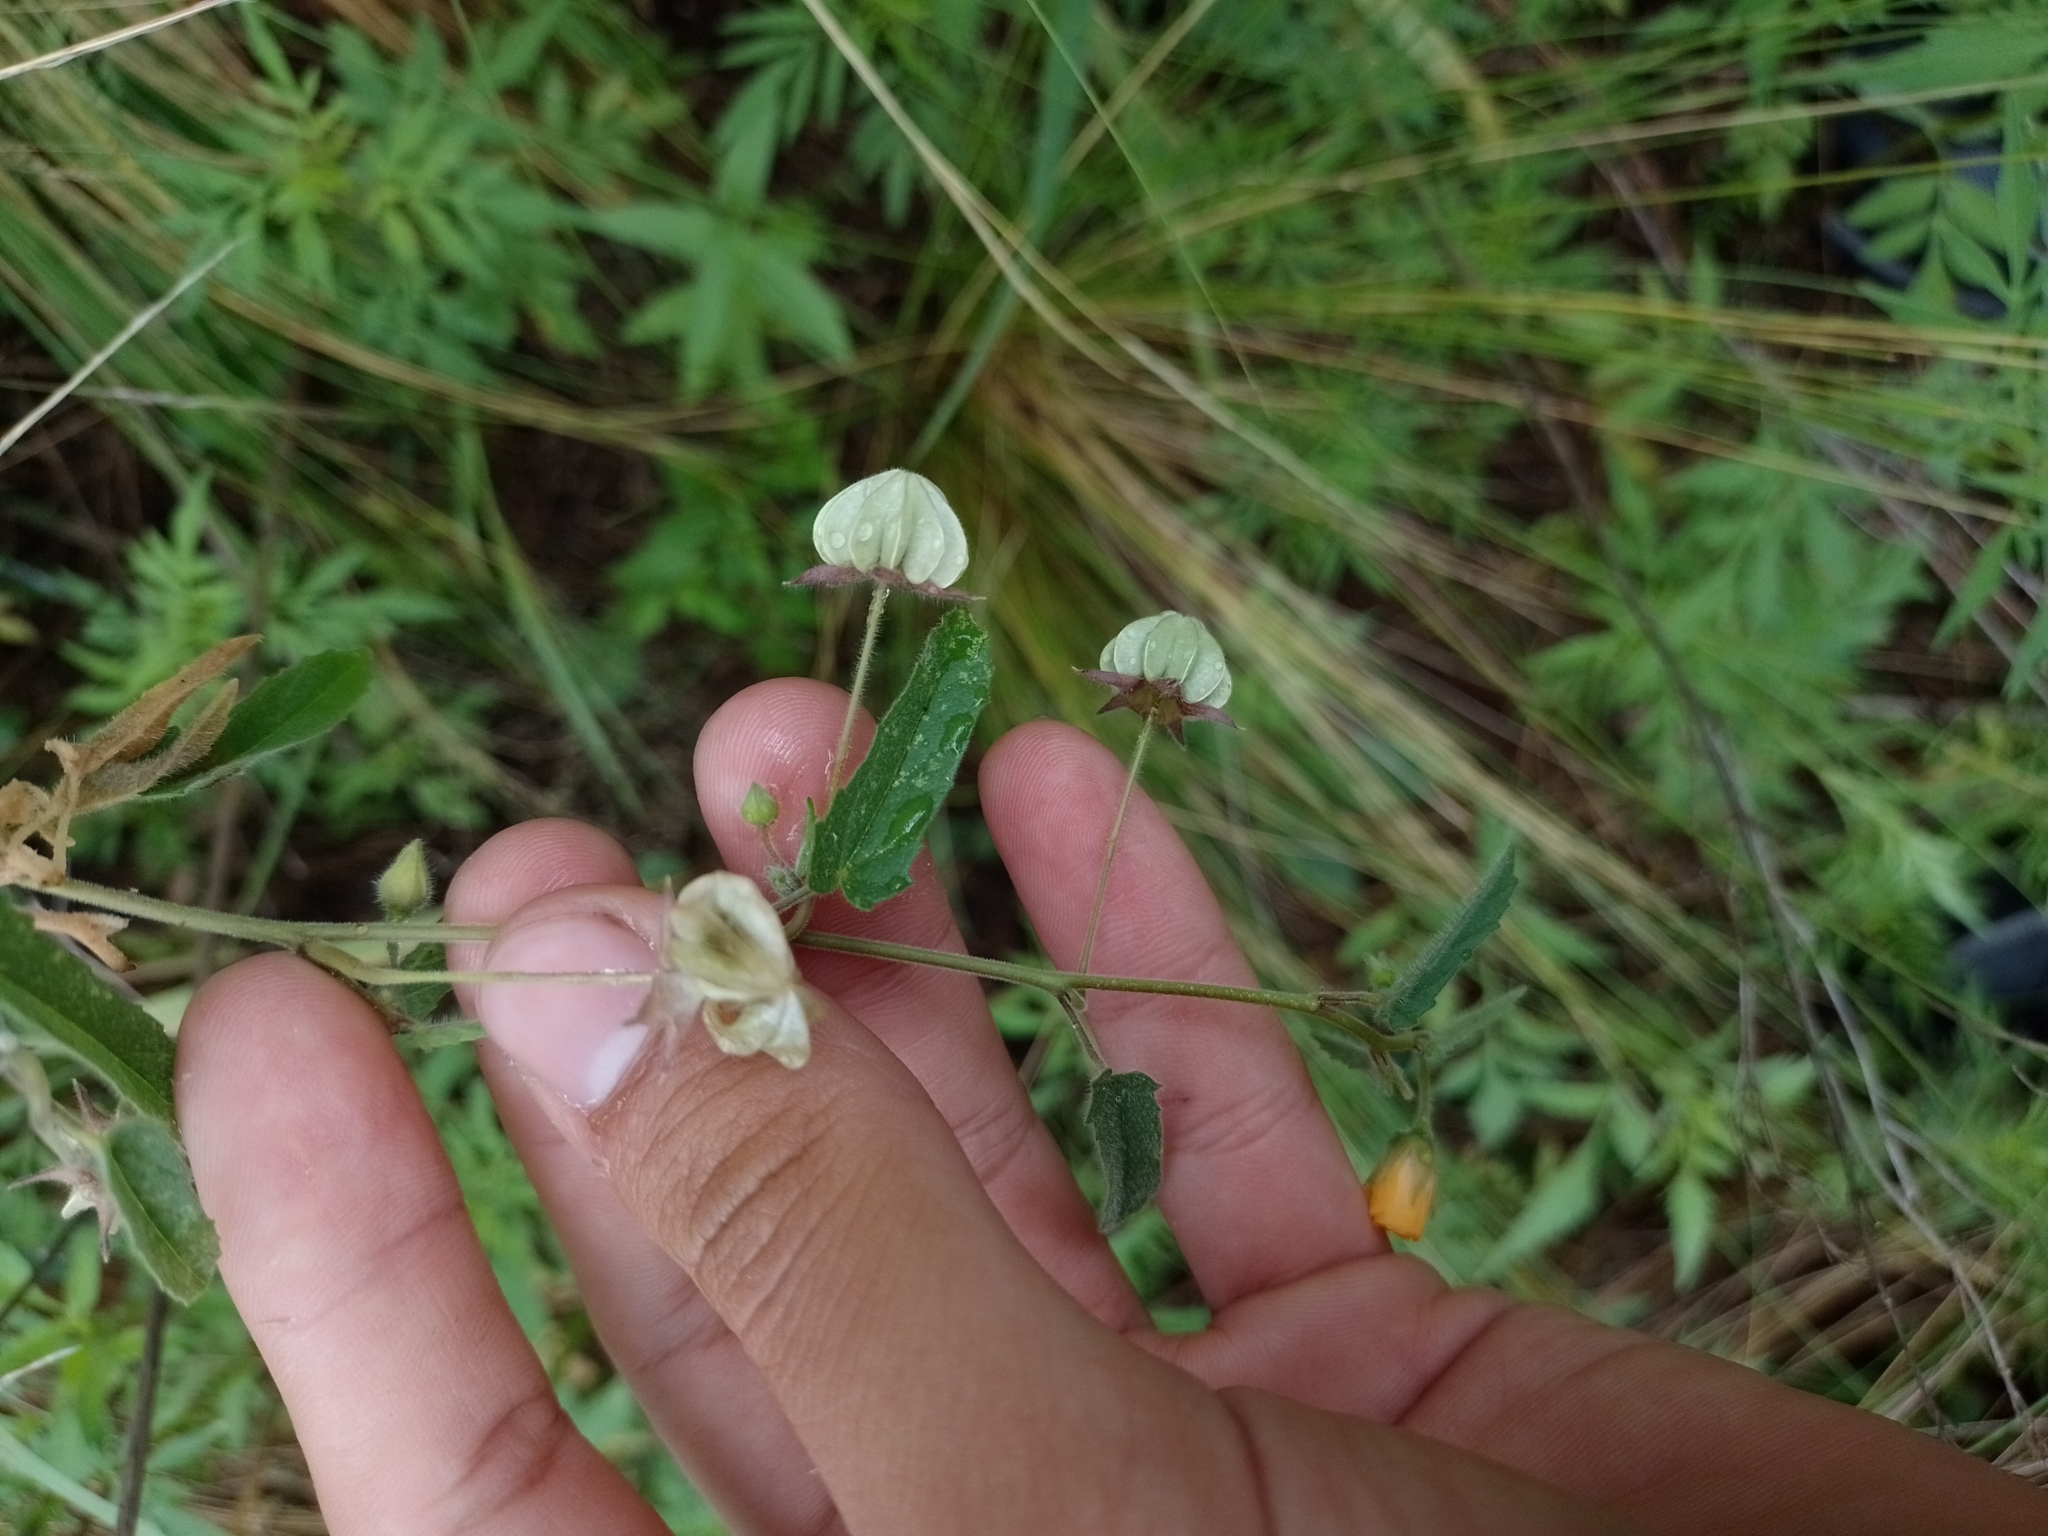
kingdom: Plantae
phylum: Tracheophyta
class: Magnoliopsida
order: Malvales
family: Malvaceae
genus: Gaya
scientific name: Gaya parviflora
